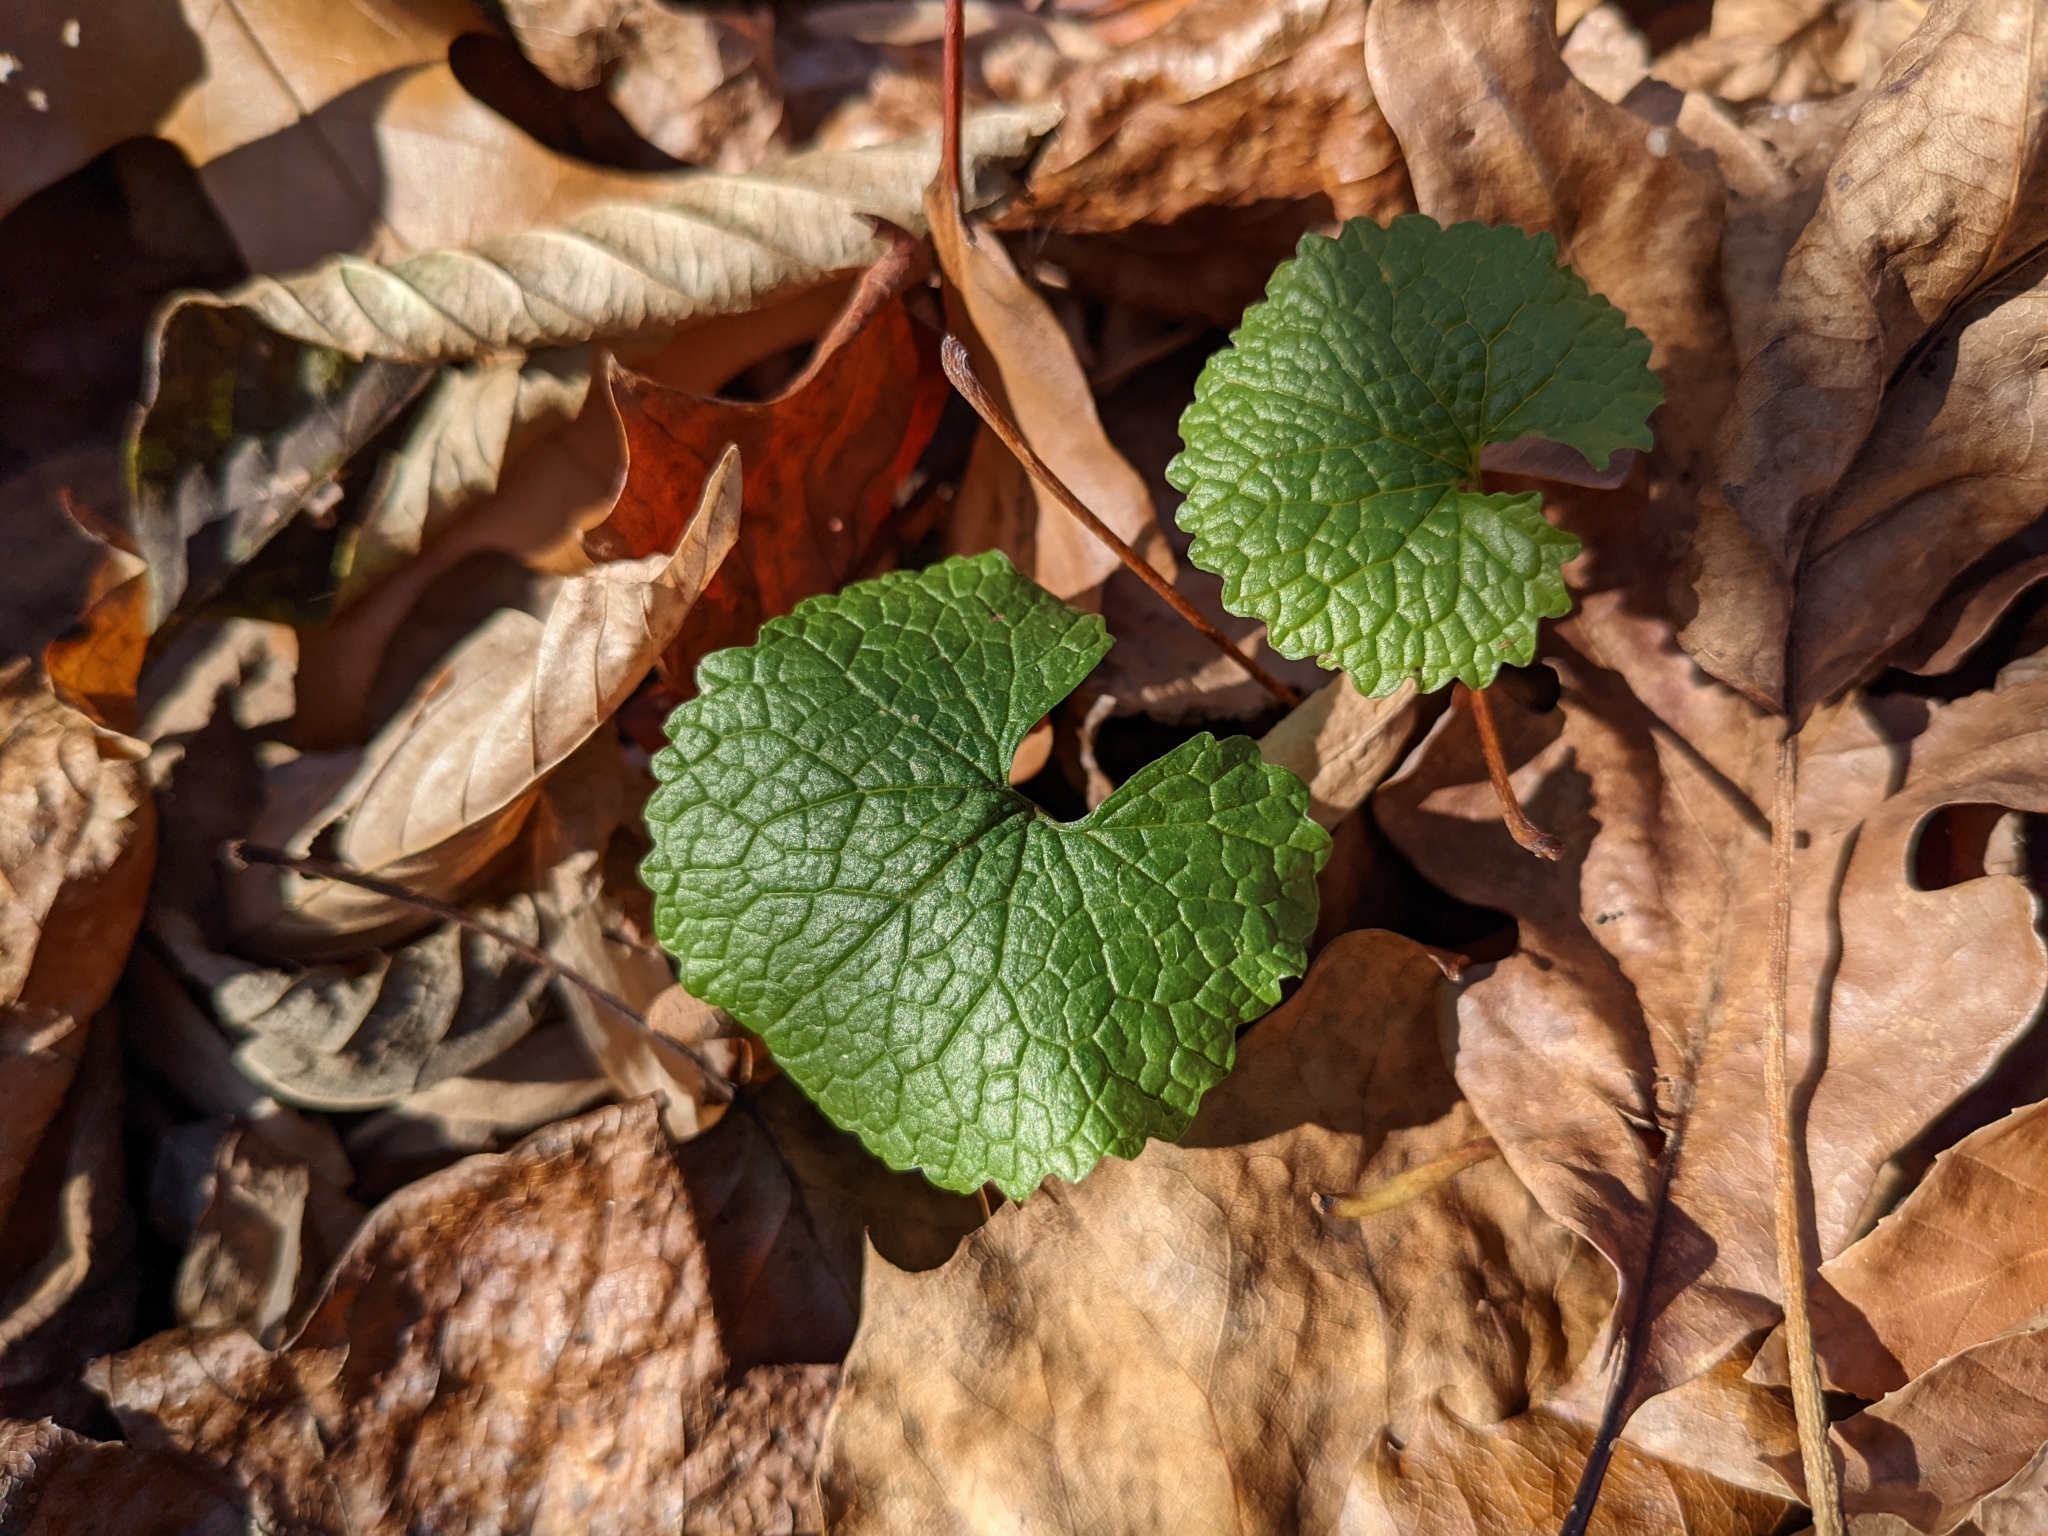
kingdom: Plantae
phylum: Tracheophyta
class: Magnoliopsida
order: Brassicales
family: Brassicaceae
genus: Alliaria
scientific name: Alliaria petiolata
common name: Garlic mustard
